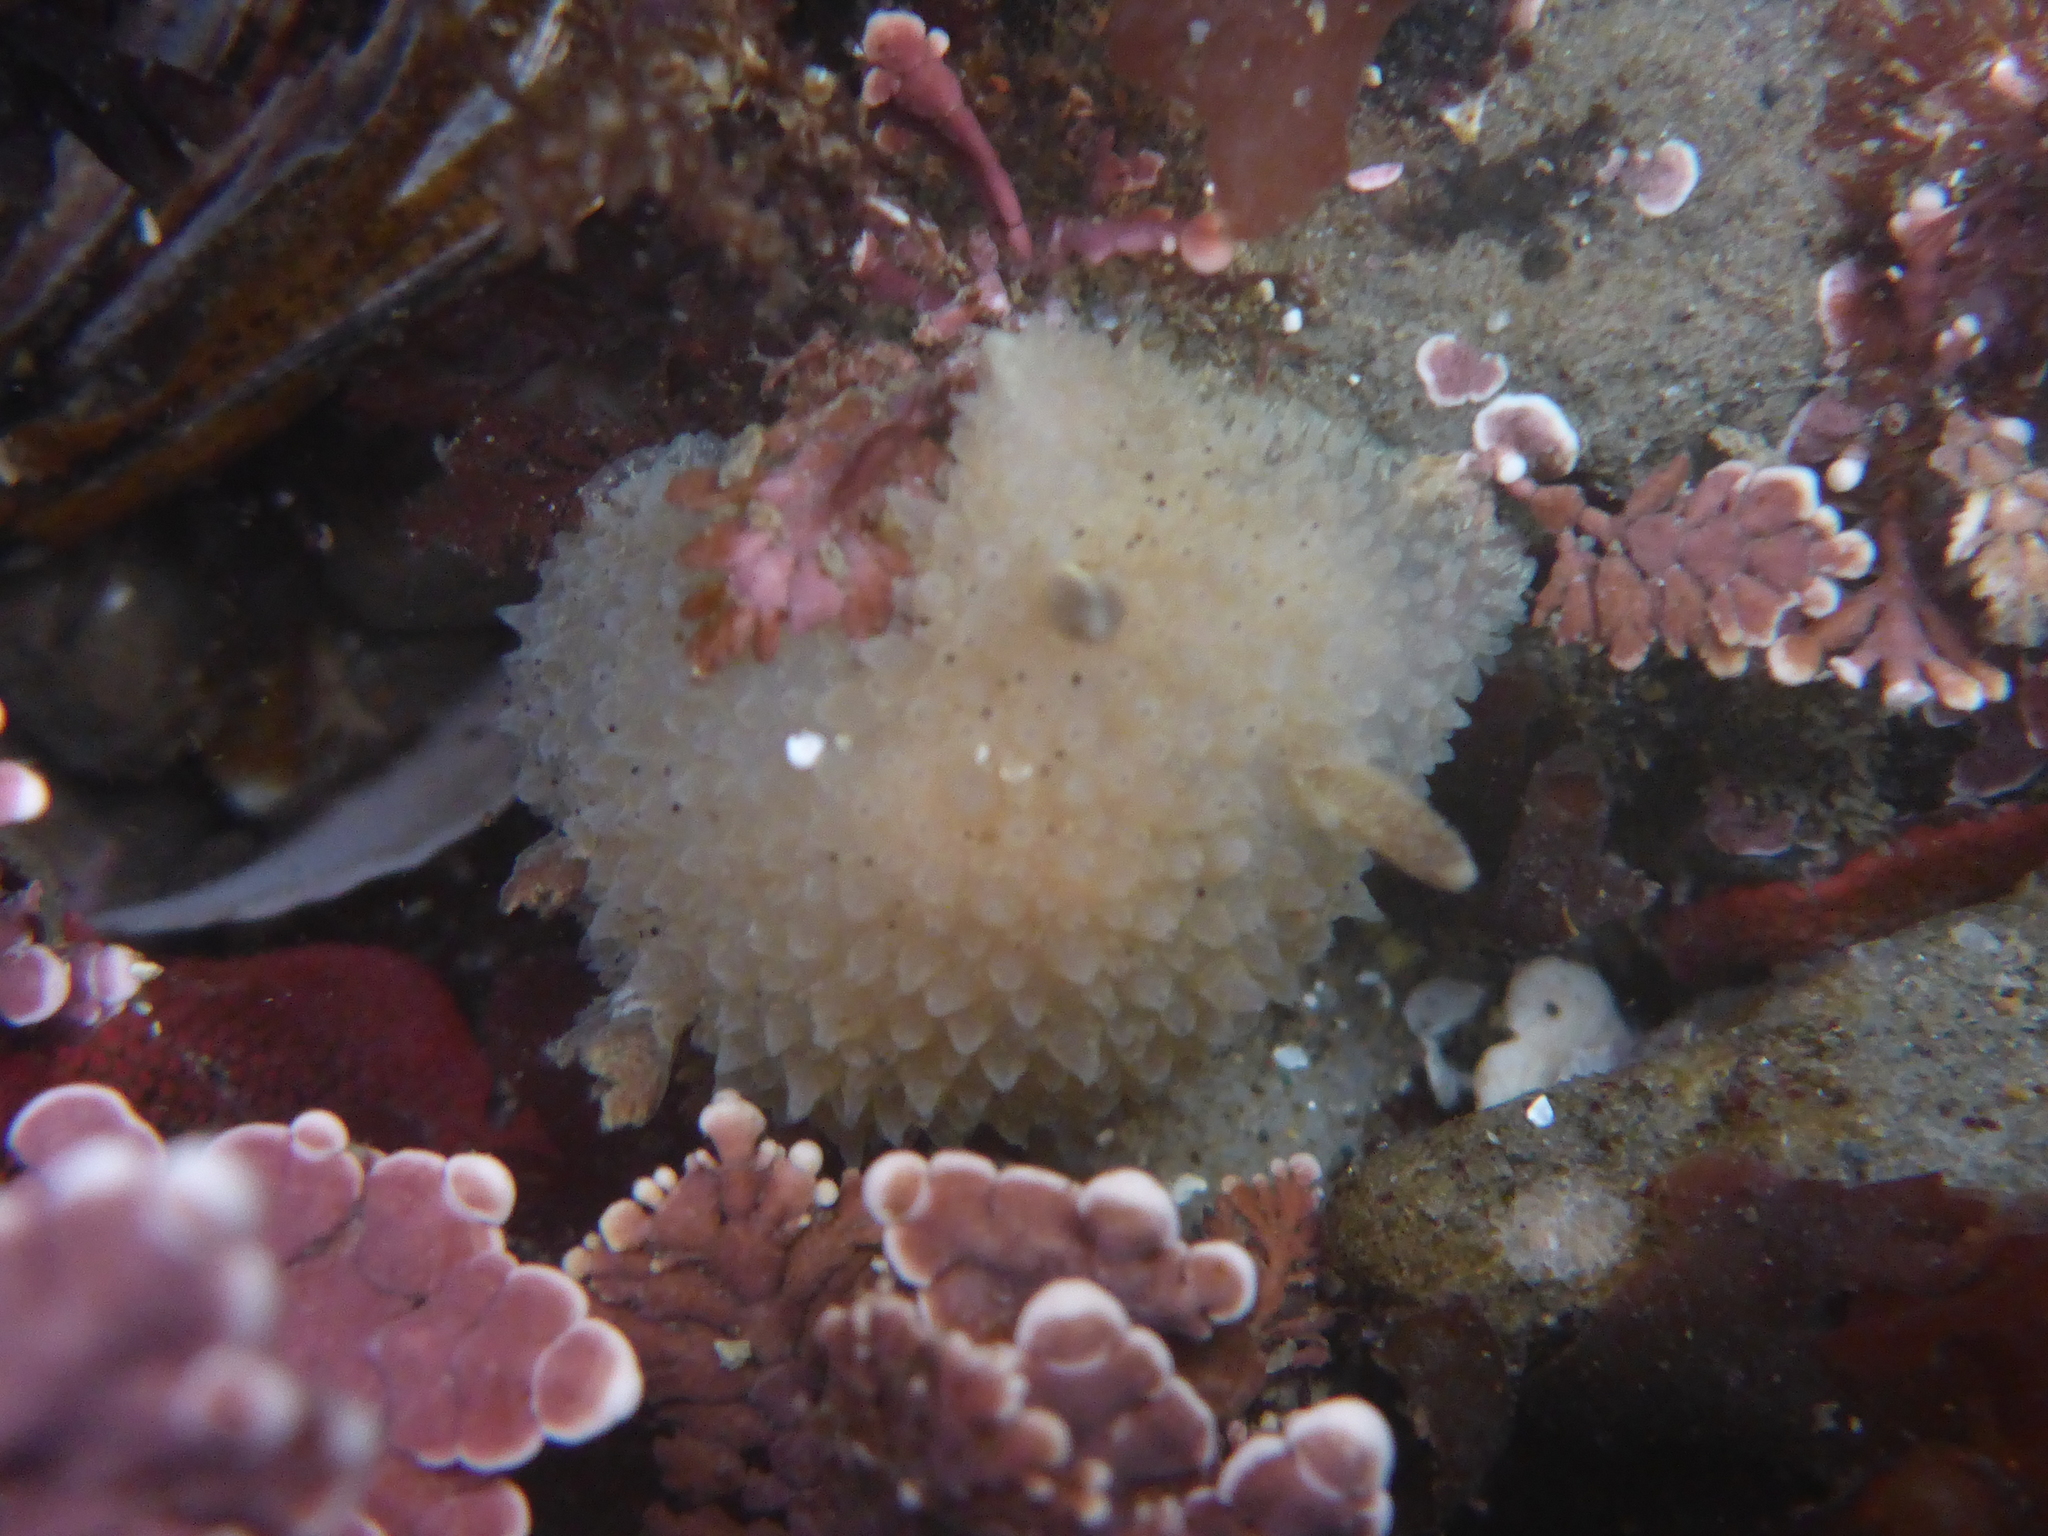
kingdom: Animalia
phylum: Mollusca
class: Gastropoda
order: Nudibranchia
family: Onchidorididae
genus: Acanthodoris
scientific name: Acanthodoris rhodoceras
